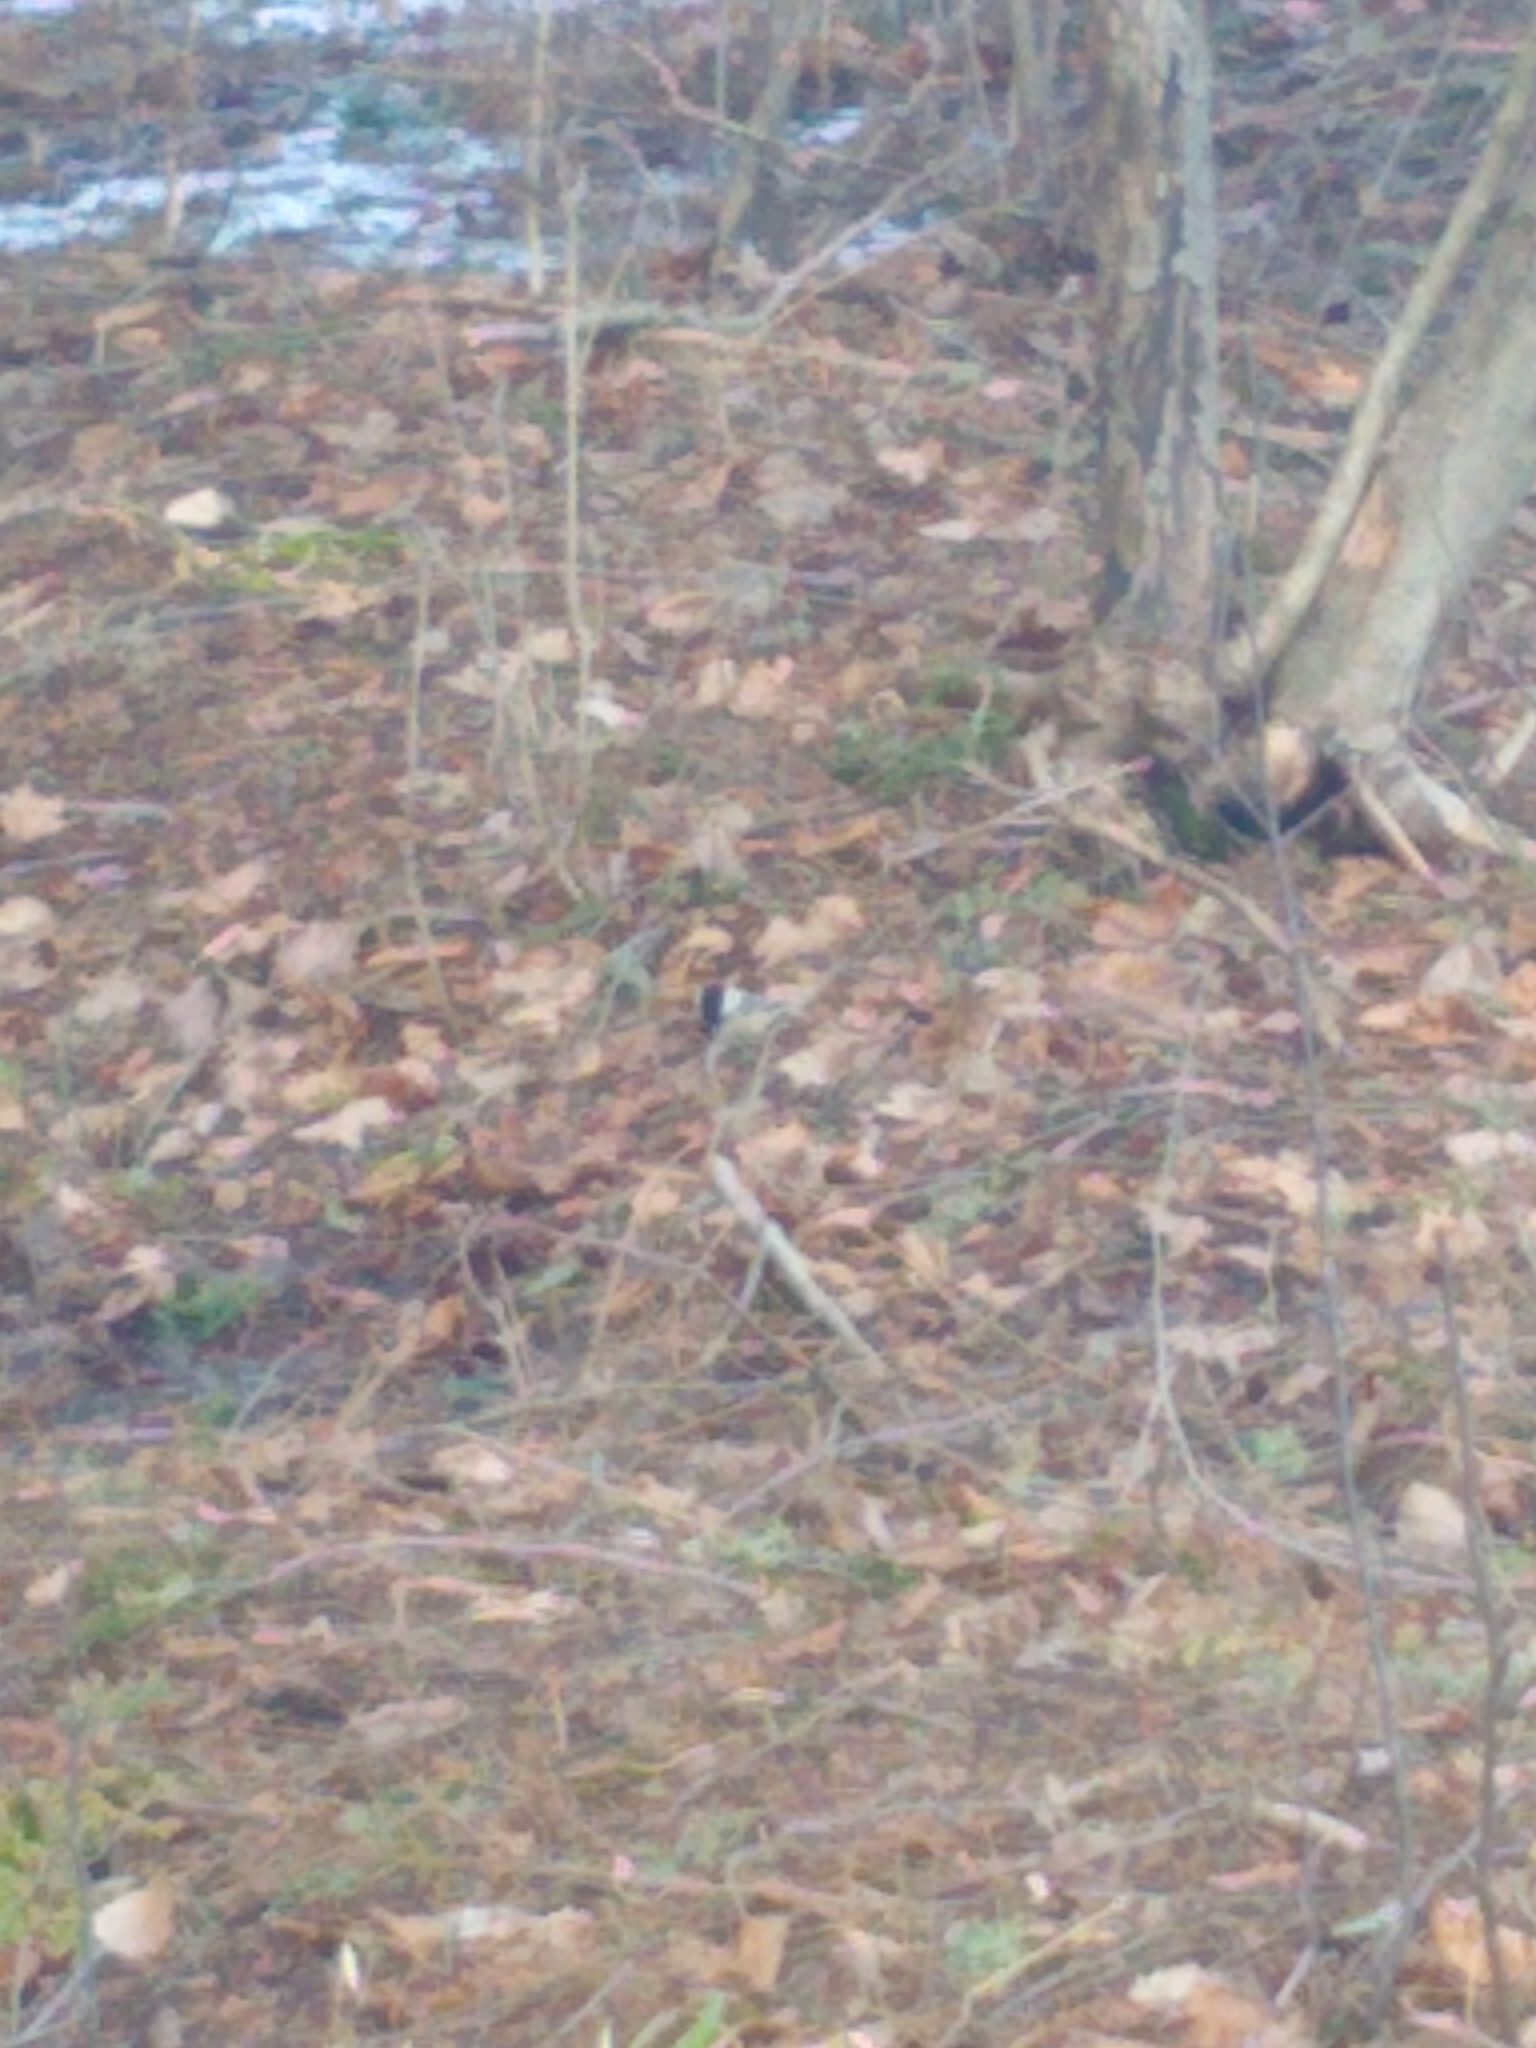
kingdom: Animalia
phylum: Chordata
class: Aves
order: Passeriformes
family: Paridae
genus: Poecile
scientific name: Poecile atricapillus
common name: Black-capped chickadee
